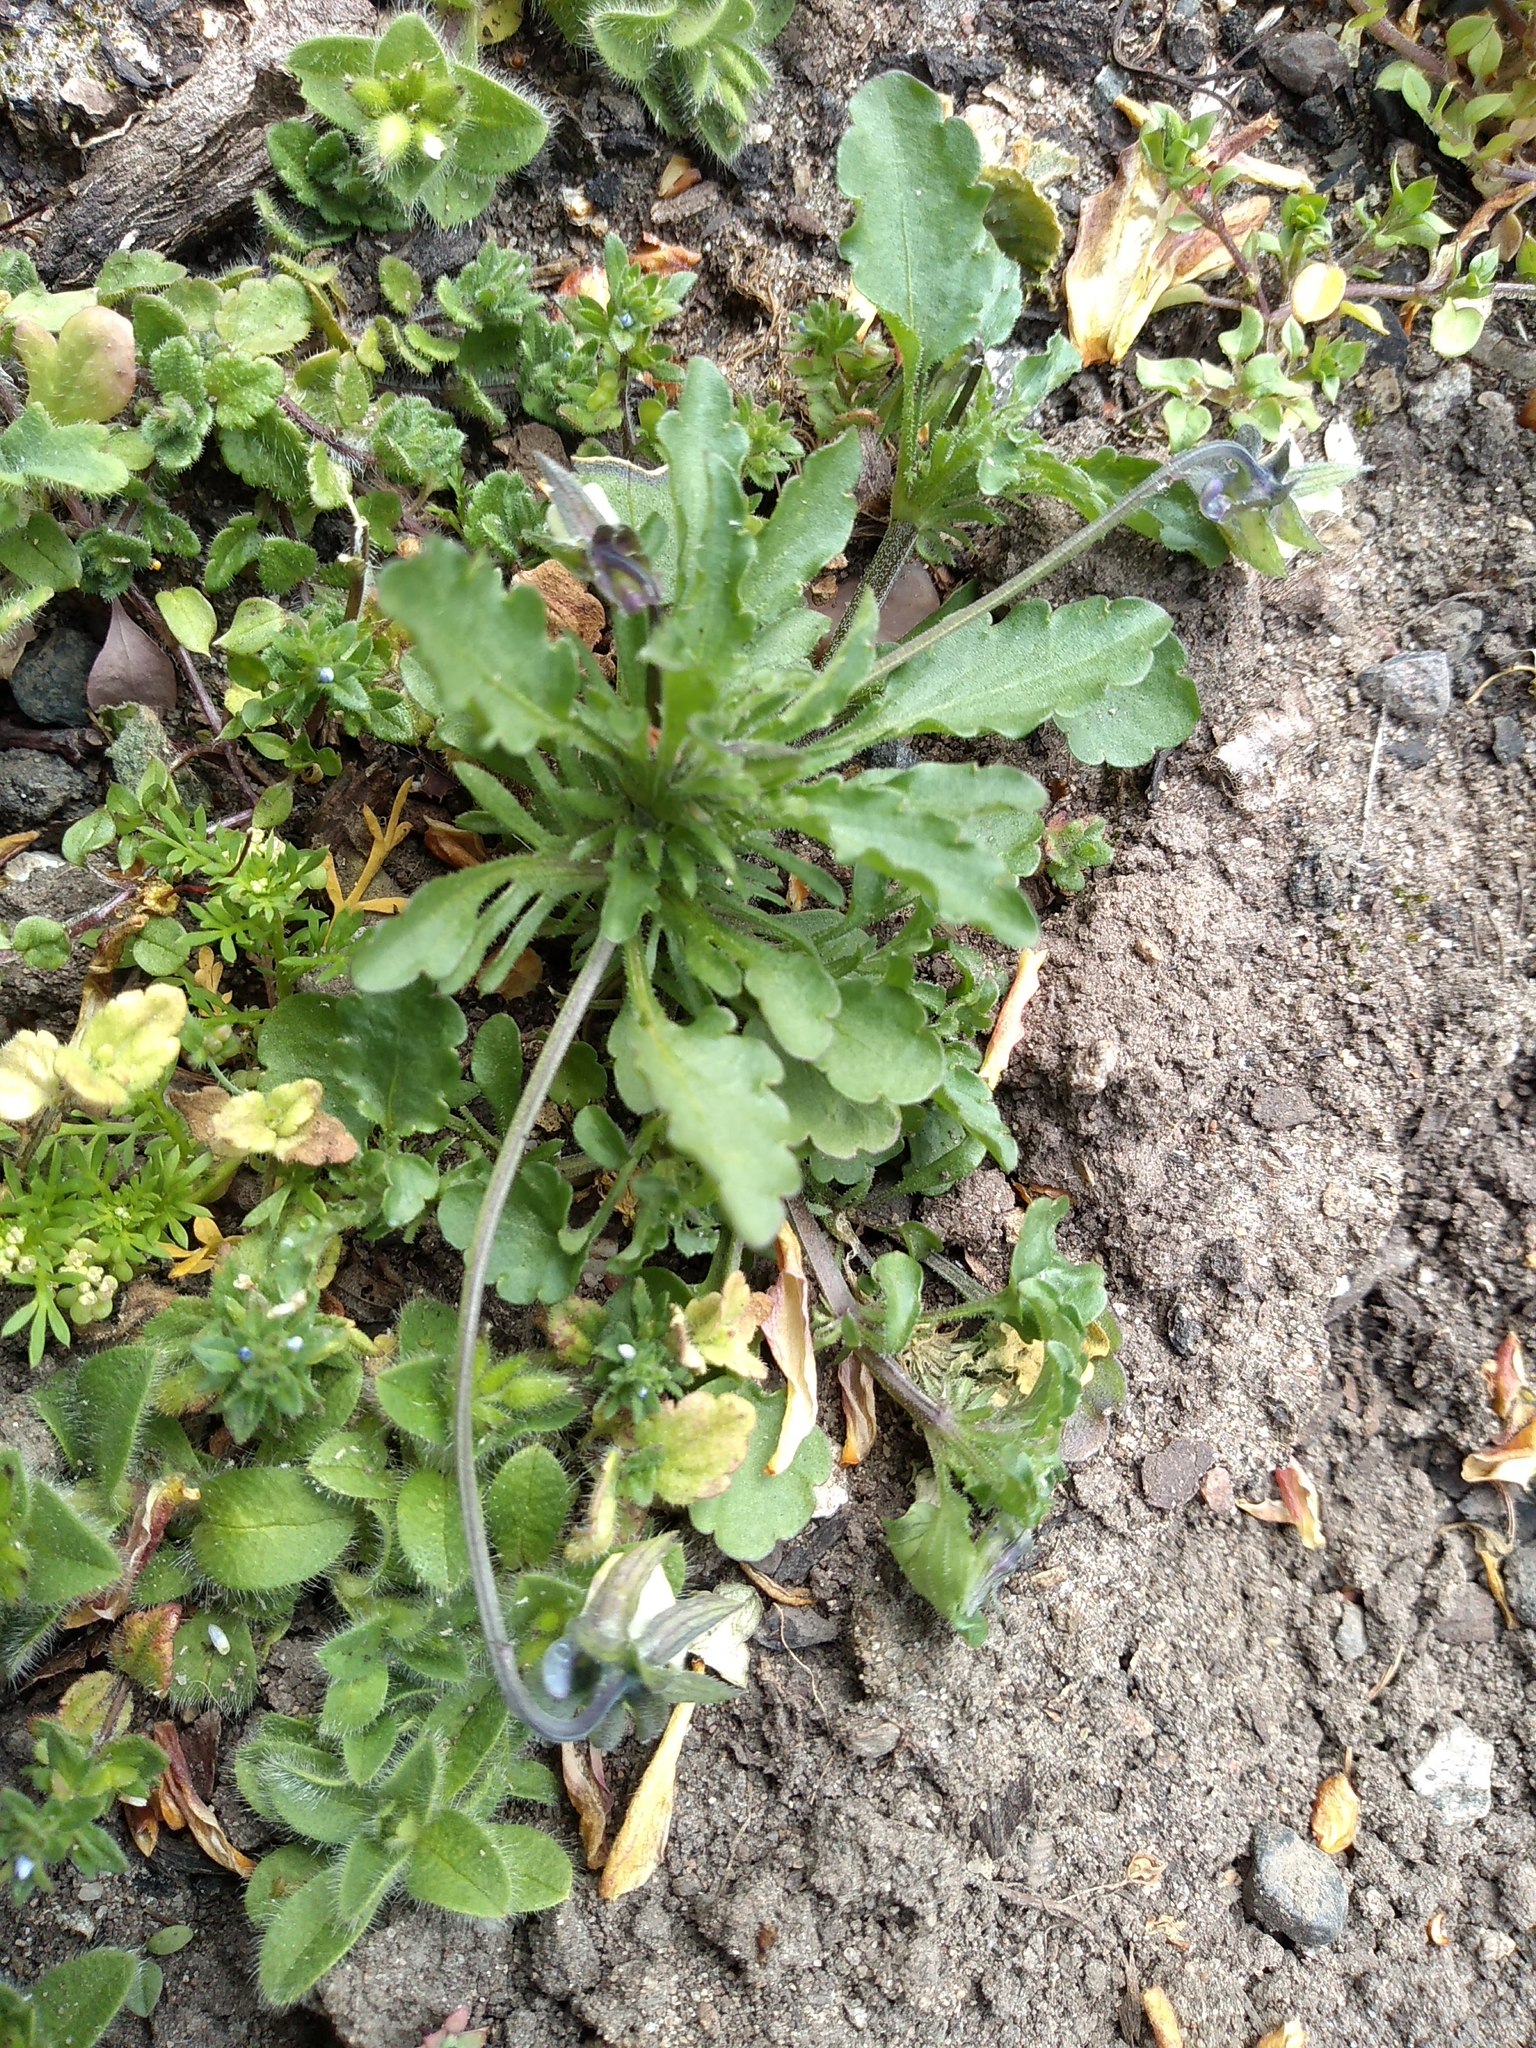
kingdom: Plantae
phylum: Tracheophyta
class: Magnoliopsida
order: Malpighiales
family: Violaceae
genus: Viola
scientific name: Viola arvensis
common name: Field pansy
